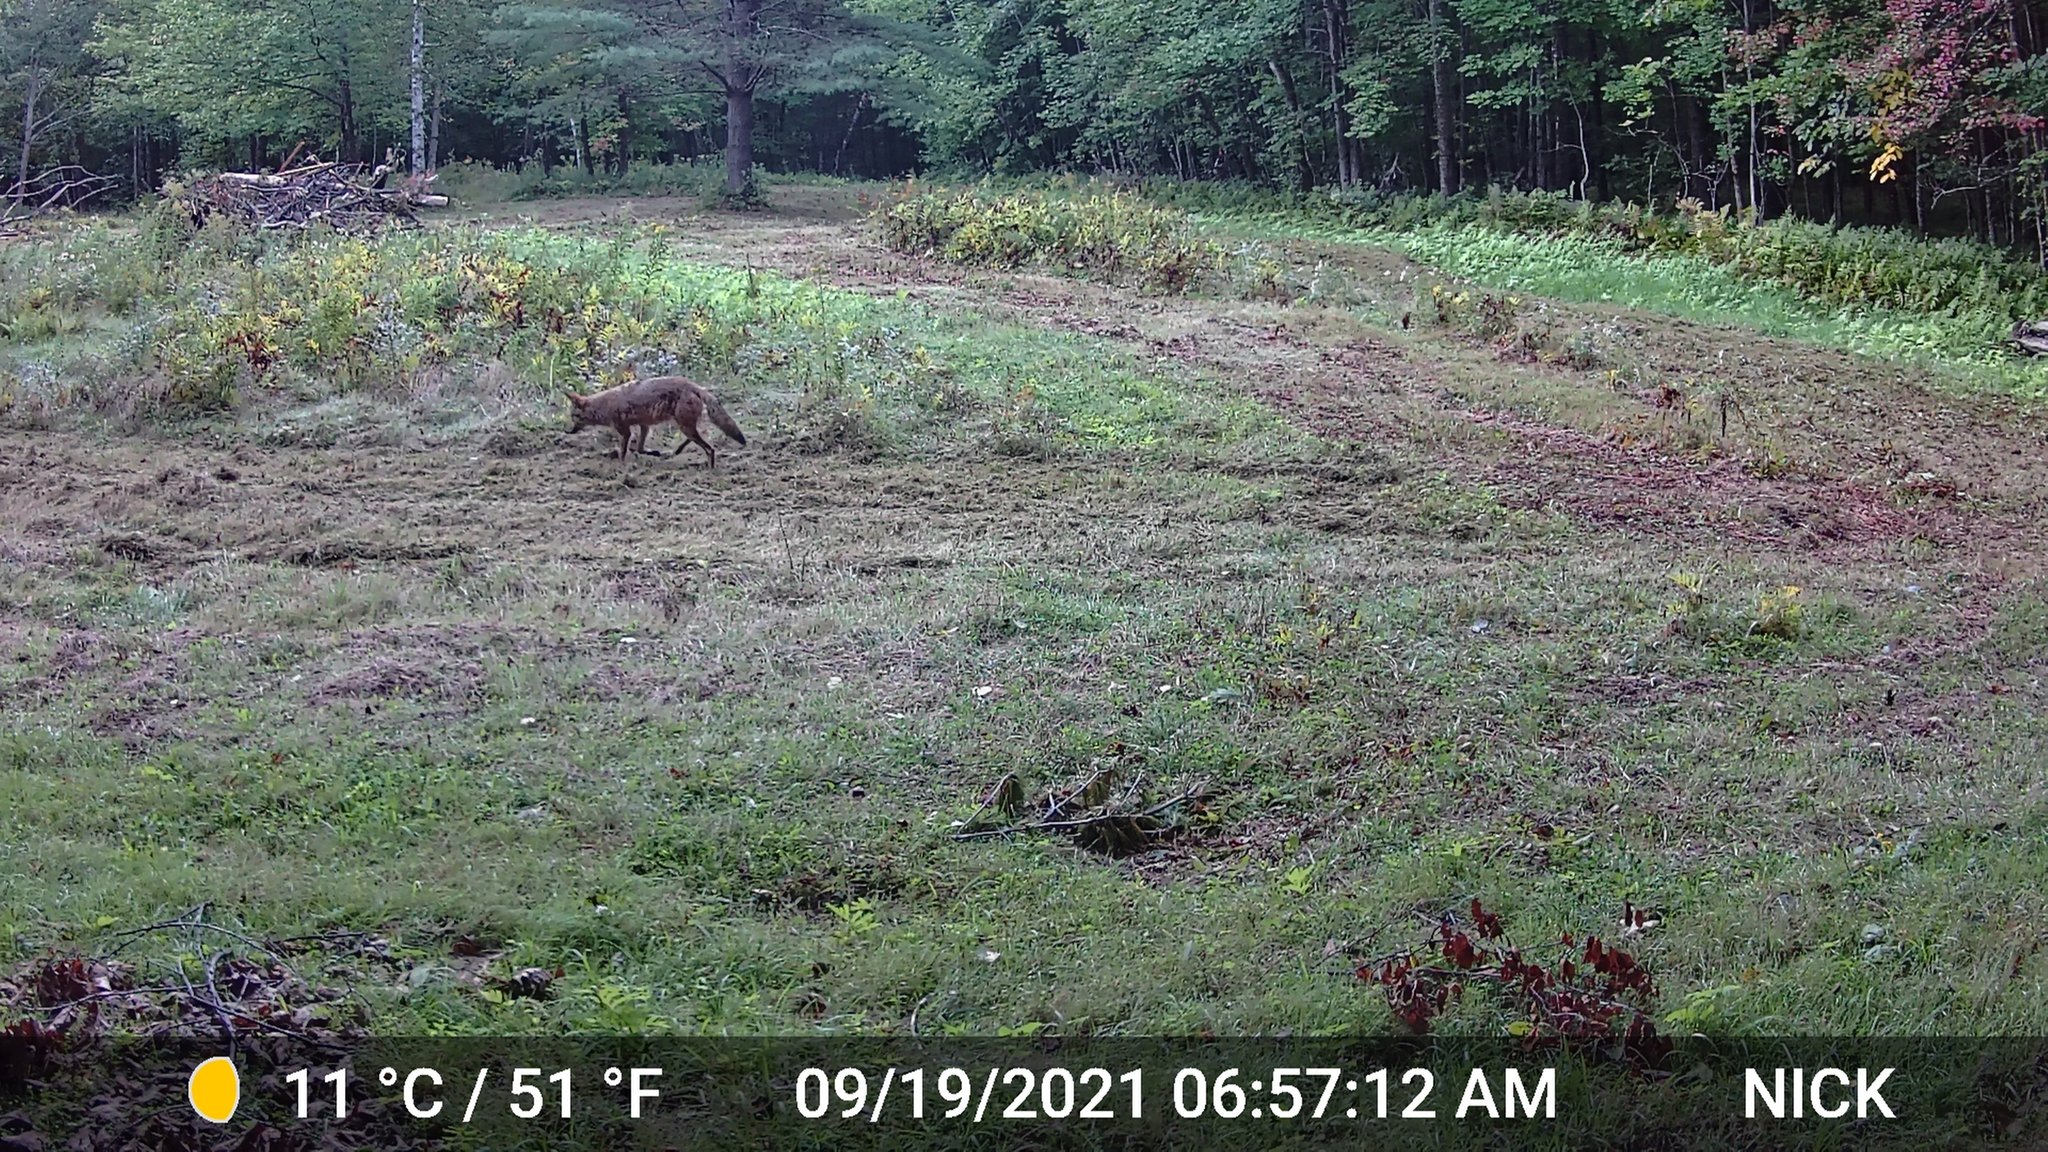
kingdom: Animalia
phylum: Chordata
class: Mammalia
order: Carnivora
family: Canidae
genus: Canis
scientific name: Canis latrans
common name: Coyote
